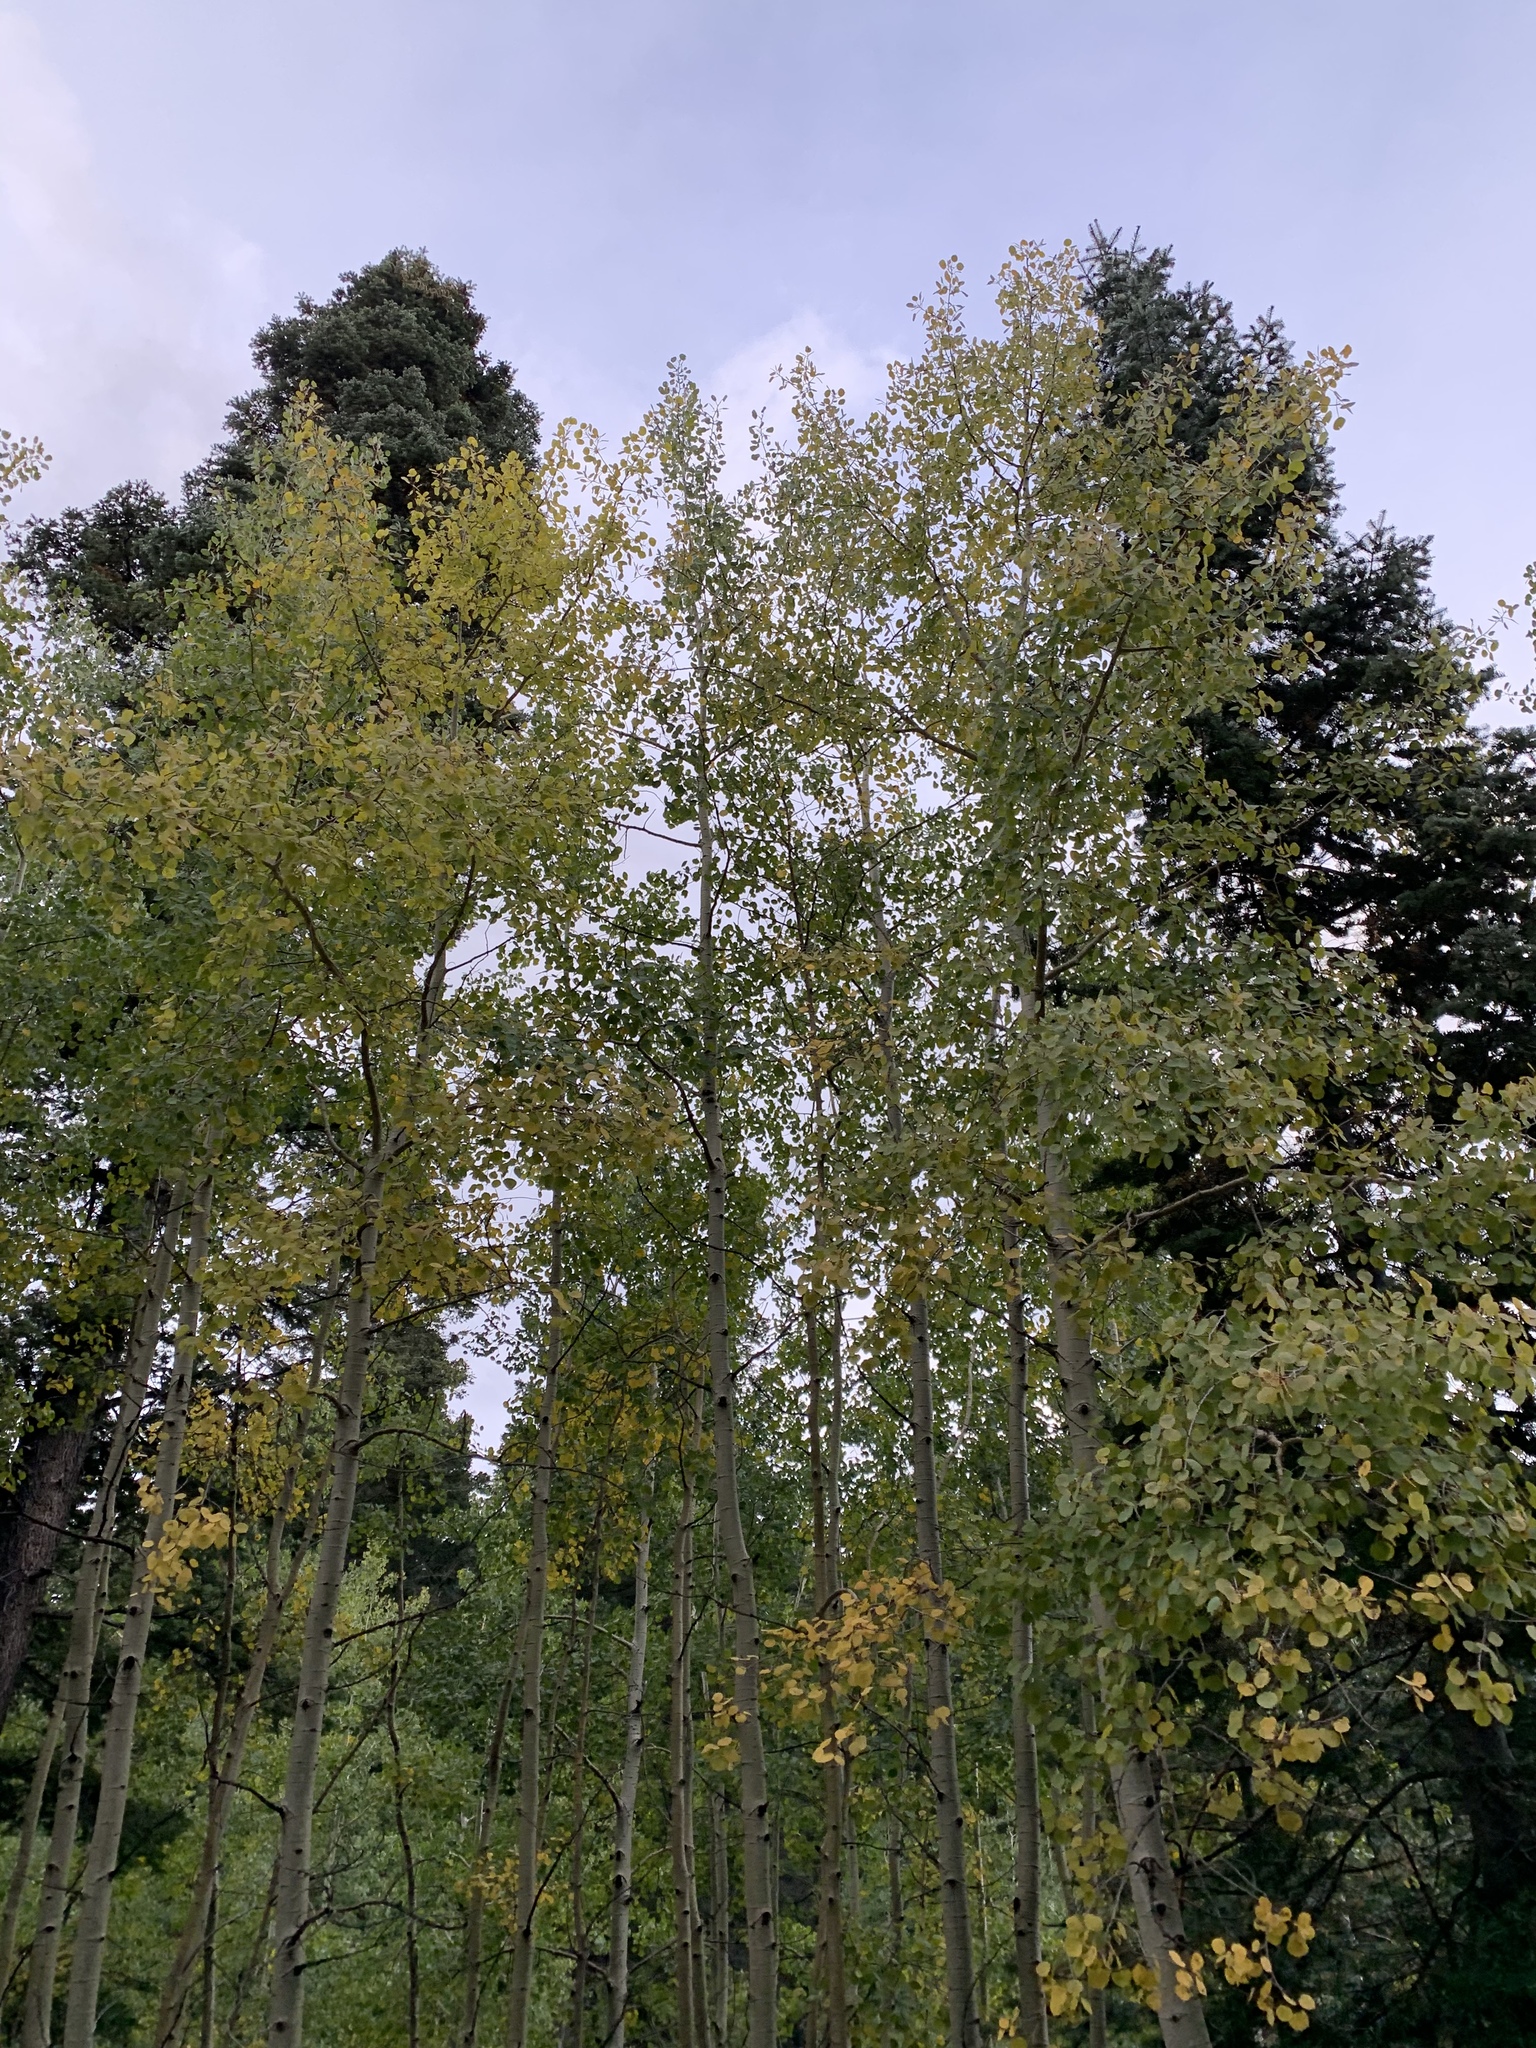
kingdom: Plantae
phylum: Tracheophyta
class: Magnoliopsida
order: Malpighiales
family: Salicaceae
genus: Populus
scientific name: Populus tremuloides
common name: Quaking aspen
